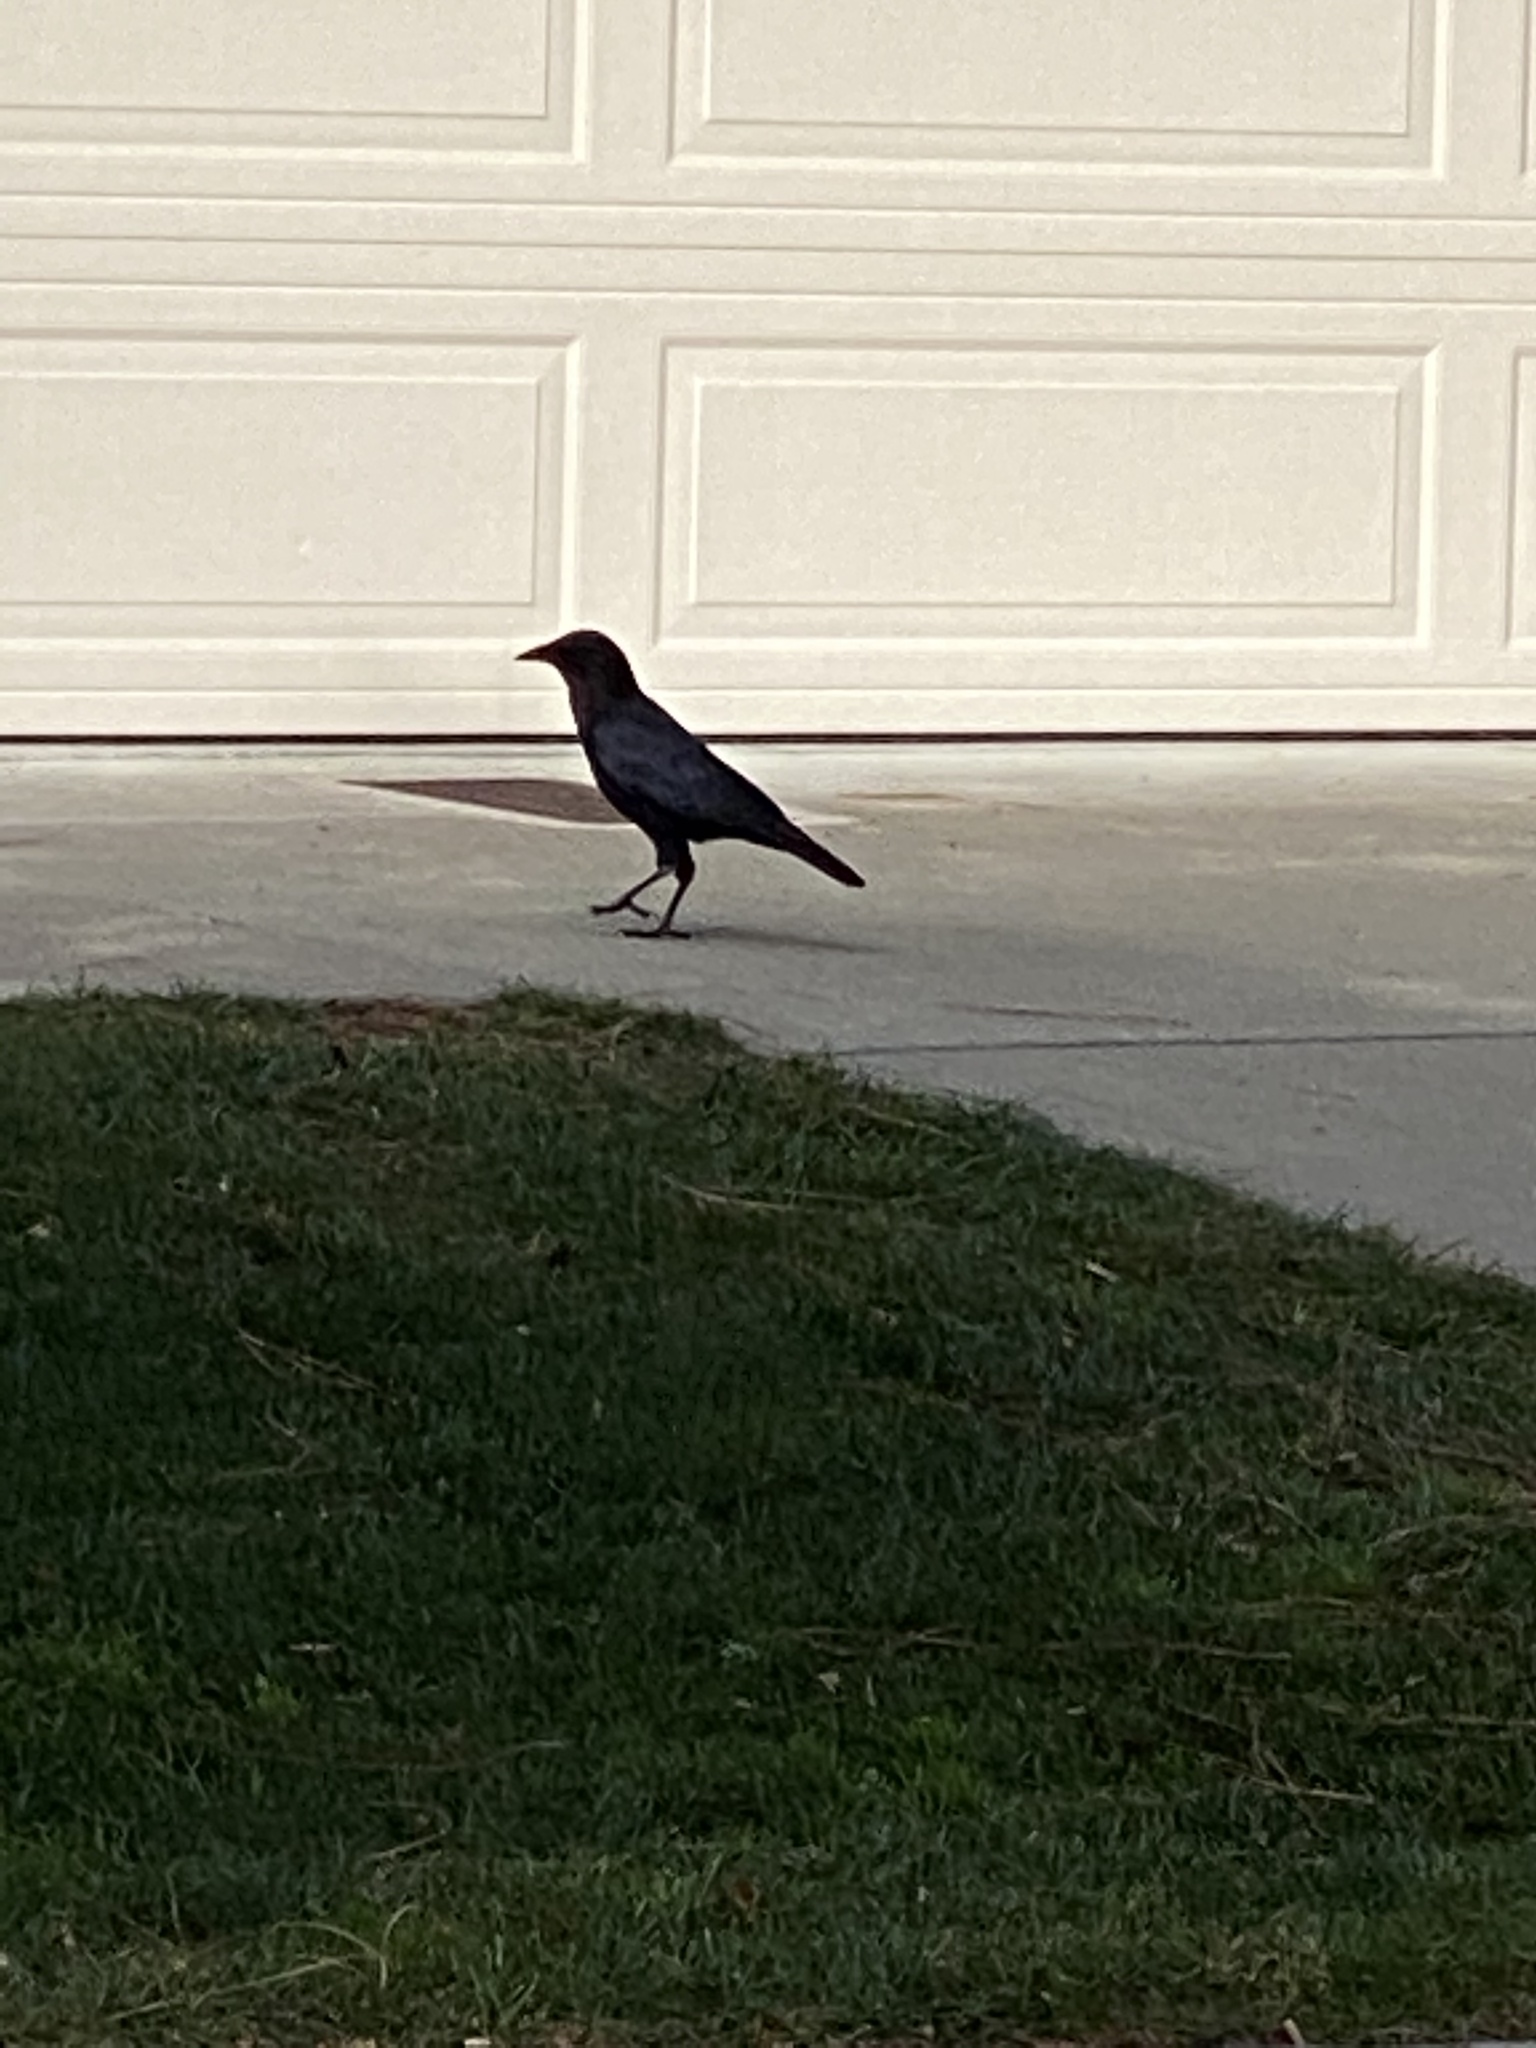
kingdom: Animalia
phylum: Chordata
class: Aves
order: Passeriformes
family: Corvidae
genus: Corvus
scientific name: Corvus brachyrhynchos
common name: American crow
